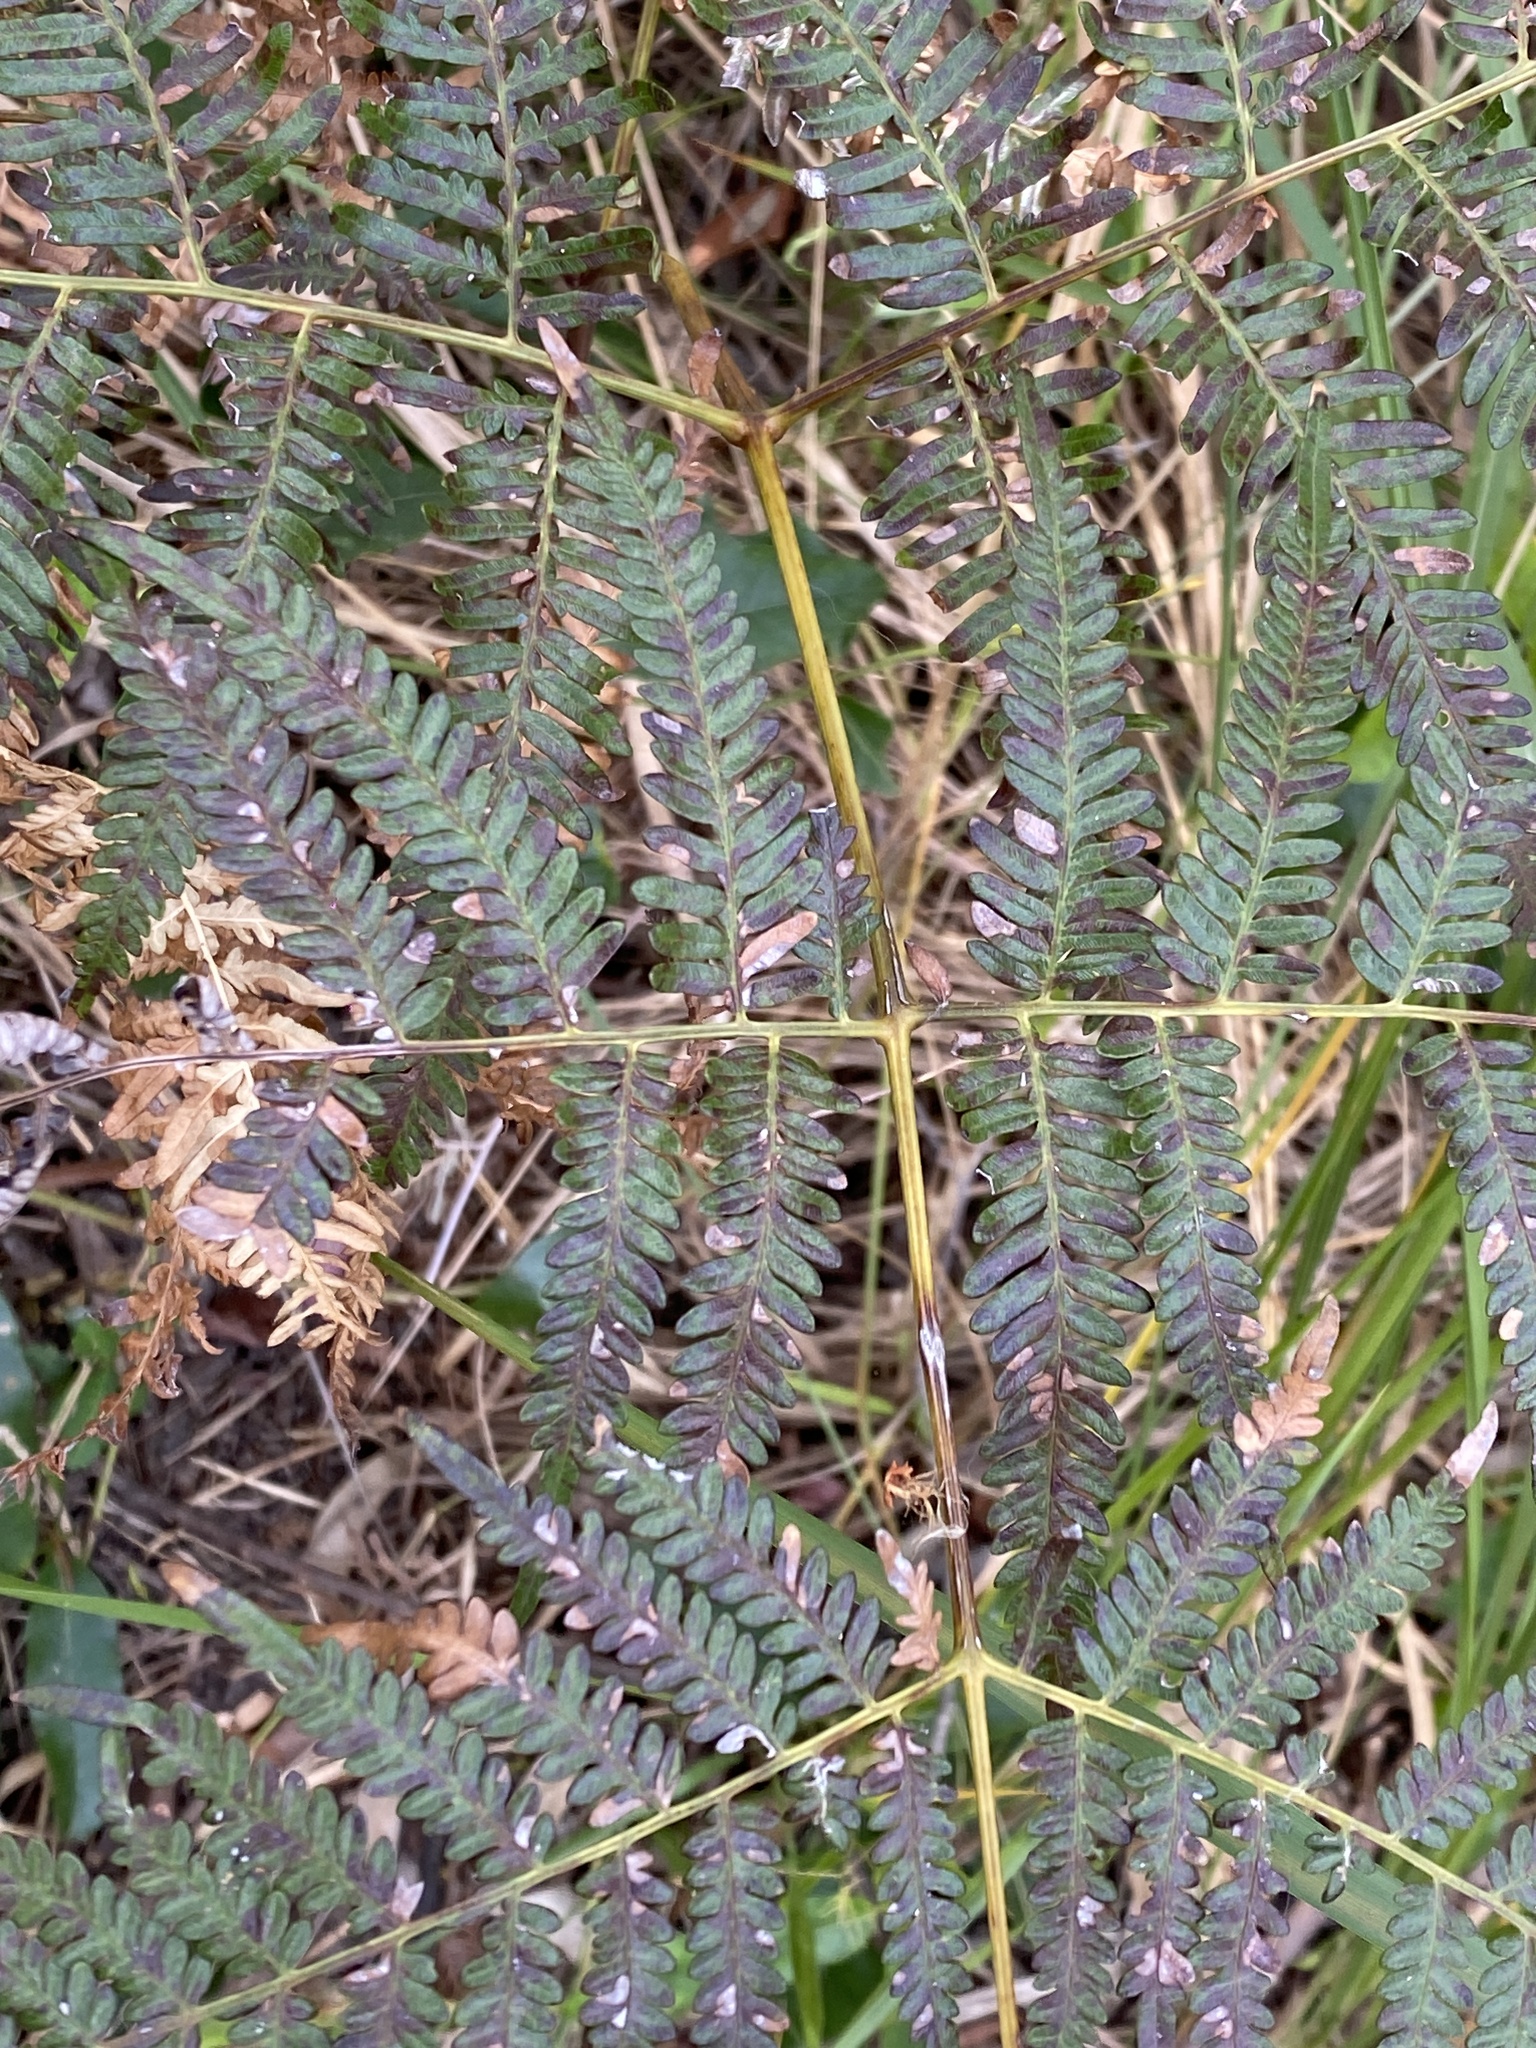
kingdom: Plantae
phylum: Tracheophyta
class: Polypodiopsida
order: Polypodiales
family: Dennstaedtiaceae
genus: Pteridium
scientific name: Pteridium esculentum
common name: Bracken fern
